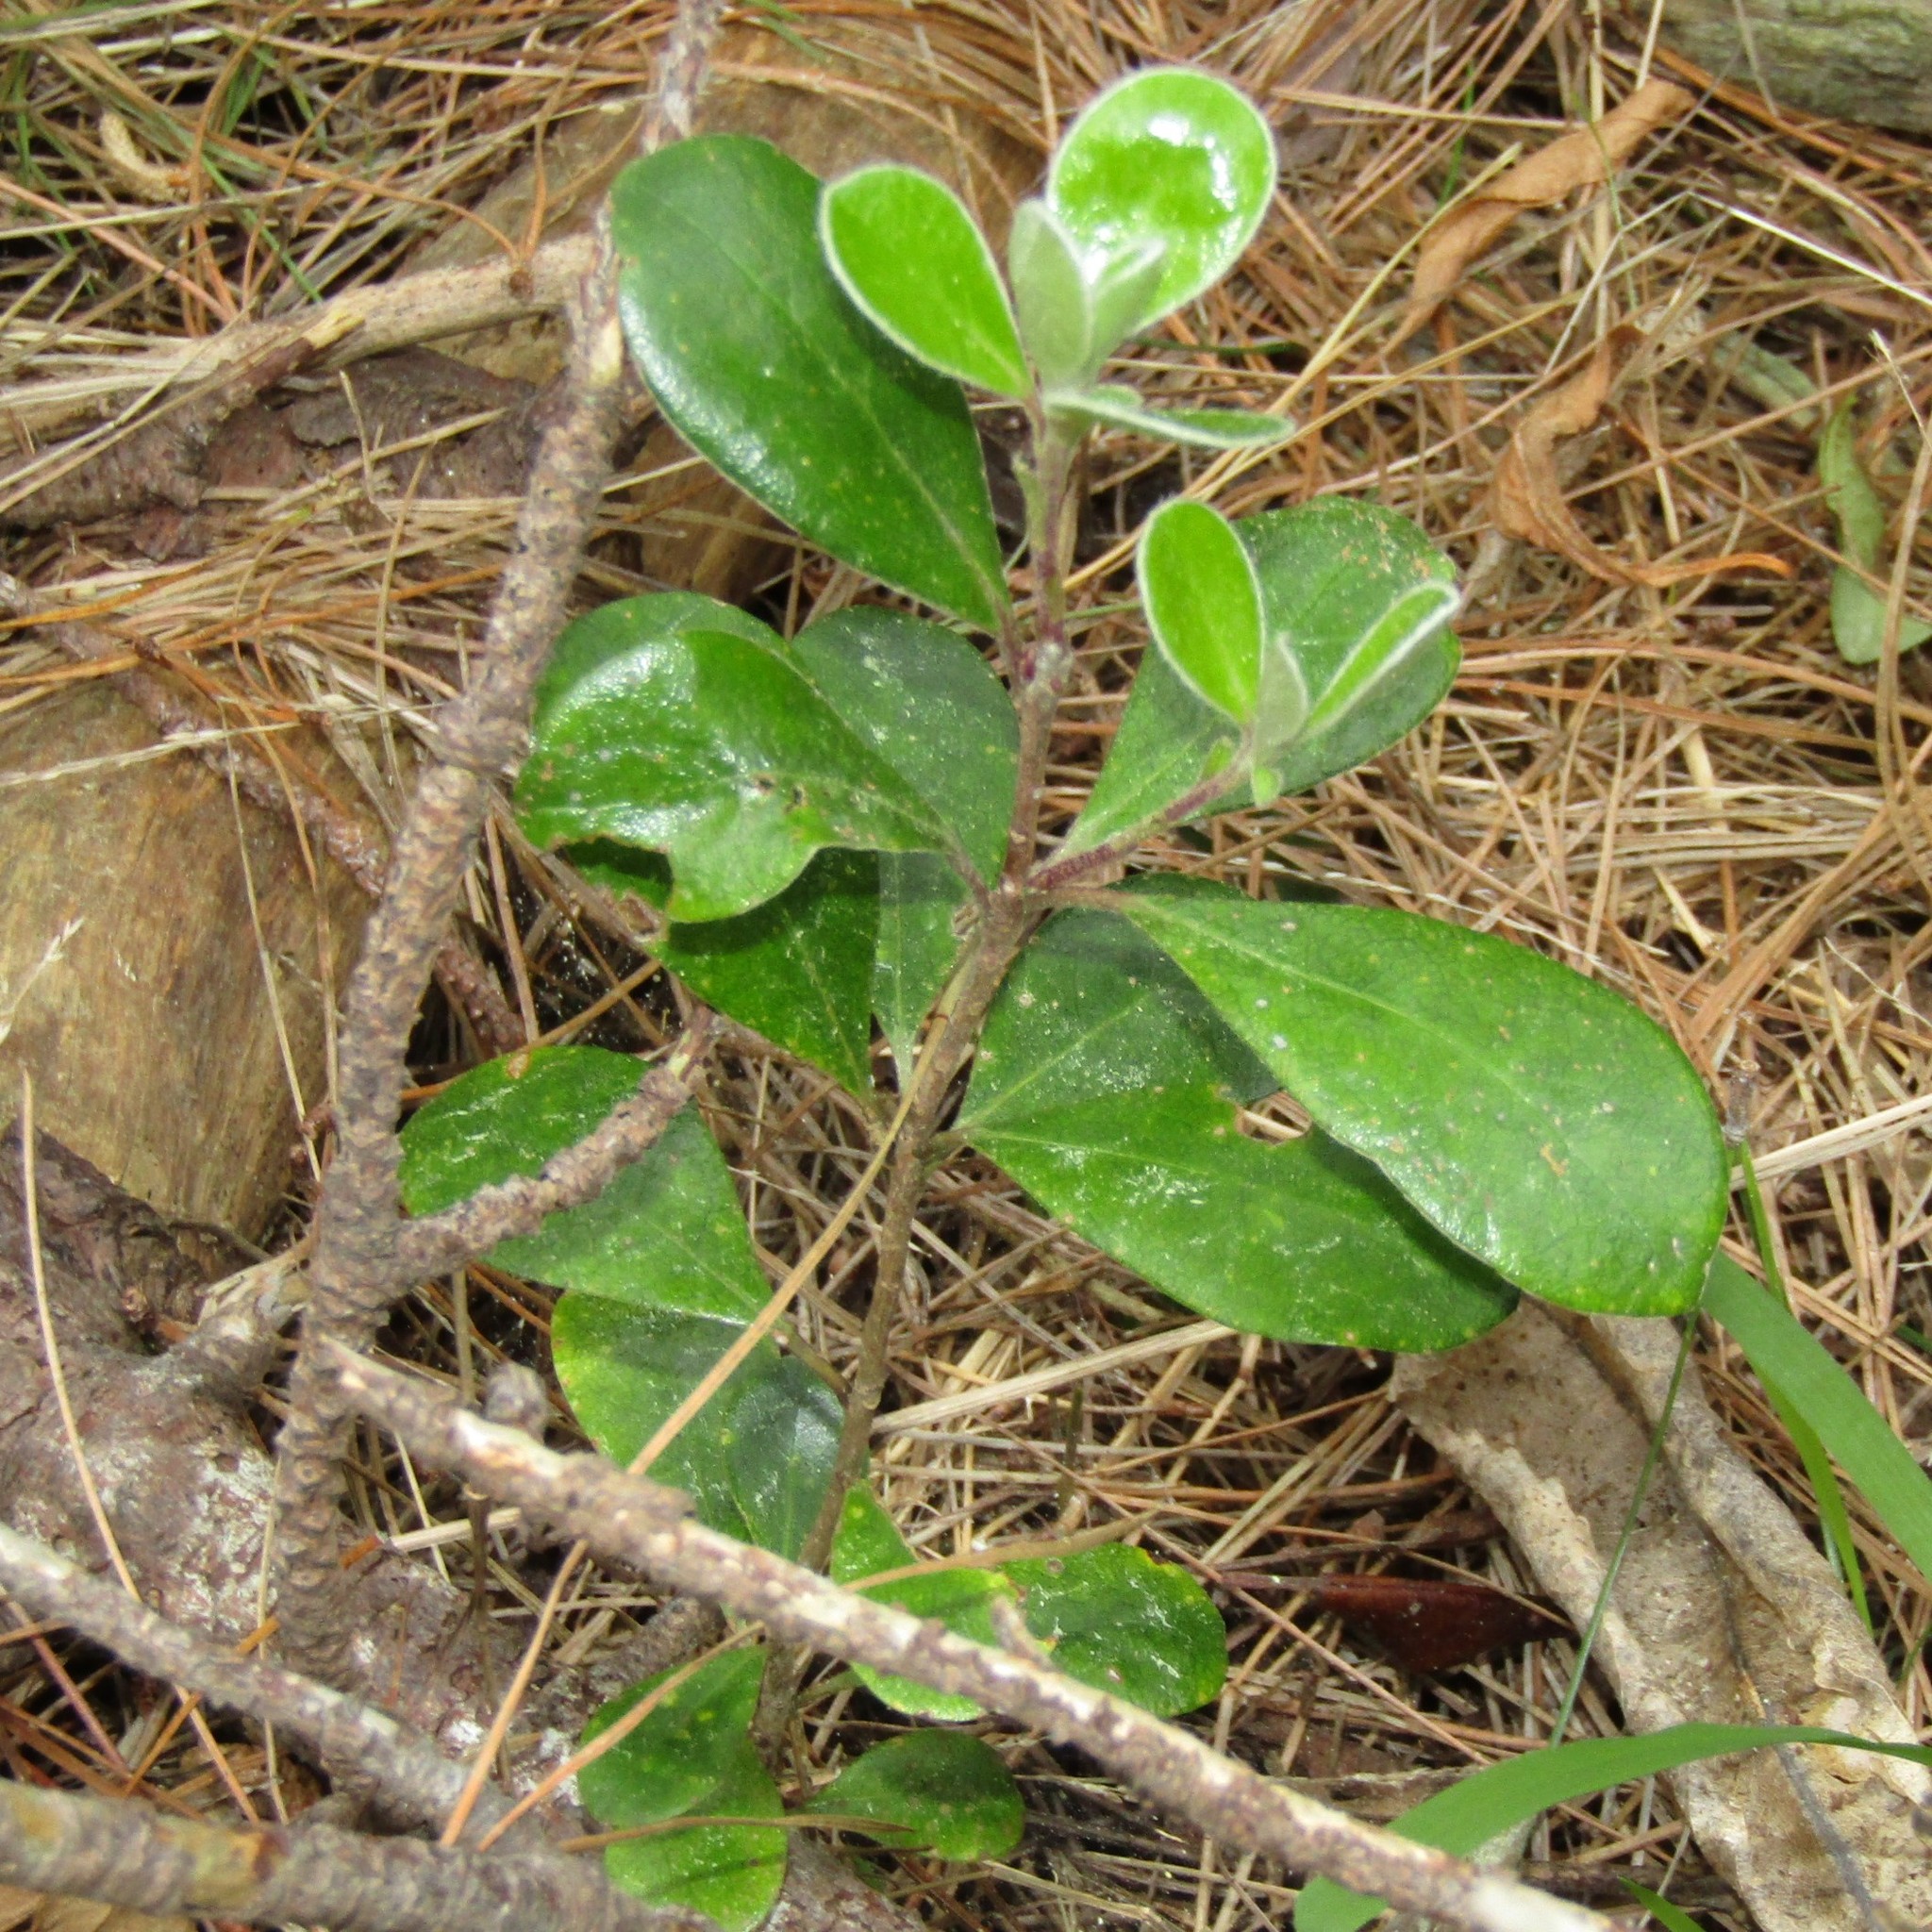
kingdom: Plantae
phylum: Tracheophyta
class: Magnoliopsida
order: Apiales
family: Pittosporaceae
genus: Pittosporum
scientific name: Pittosporum crassifolium
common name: Karo
